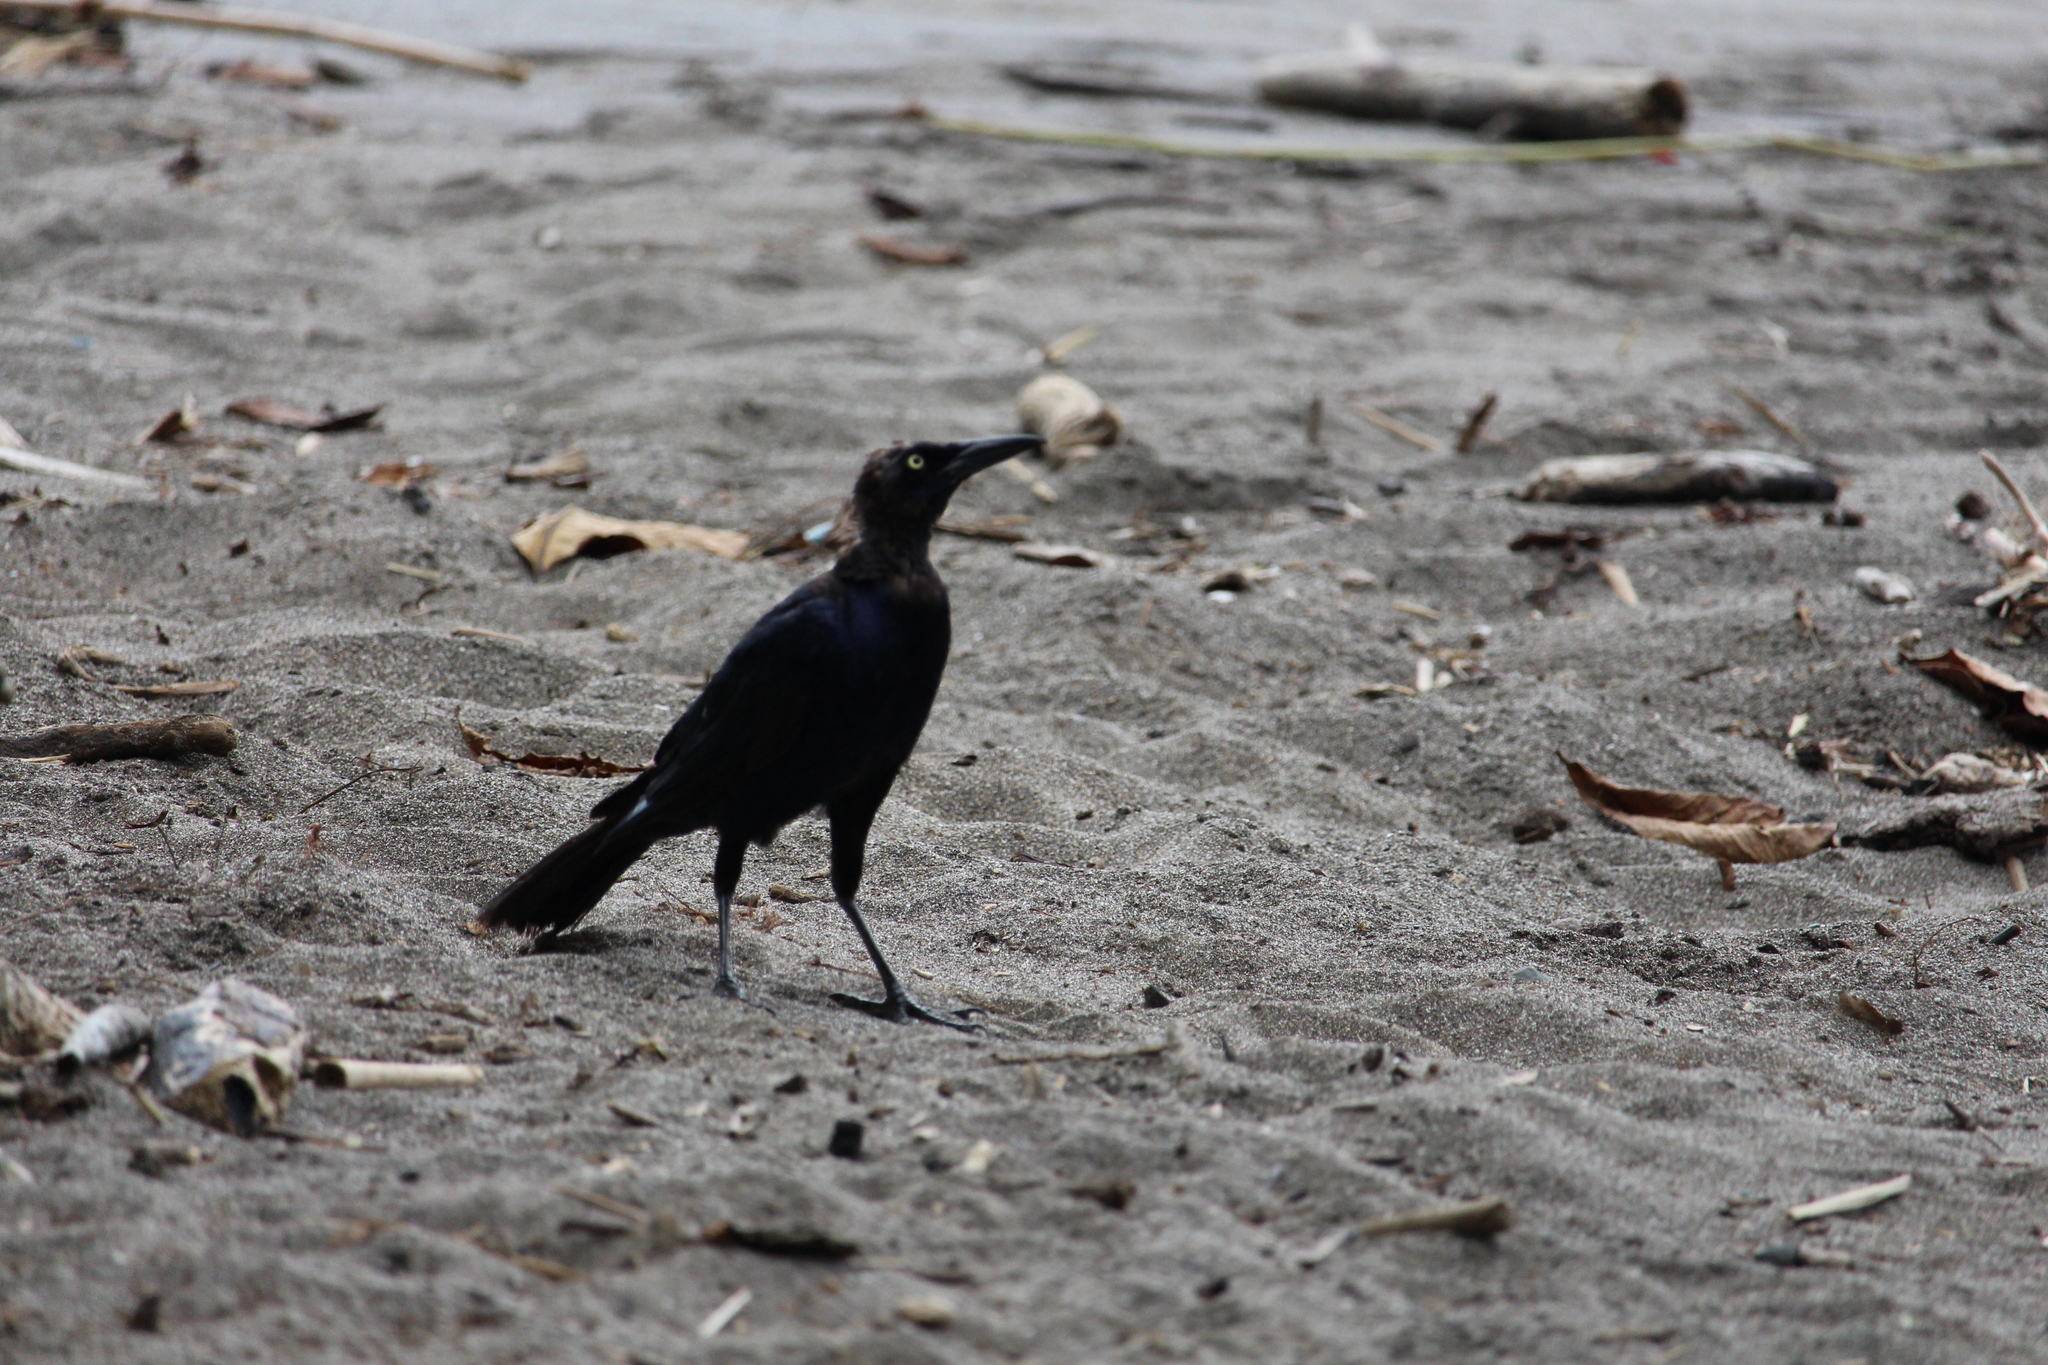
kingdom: Animalia
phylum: Chordata
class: Aves
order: Passeriformes
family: Icteridae
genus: Quiscalus
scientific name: Quiscalus mexicanus
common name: Great-tailed grackle
